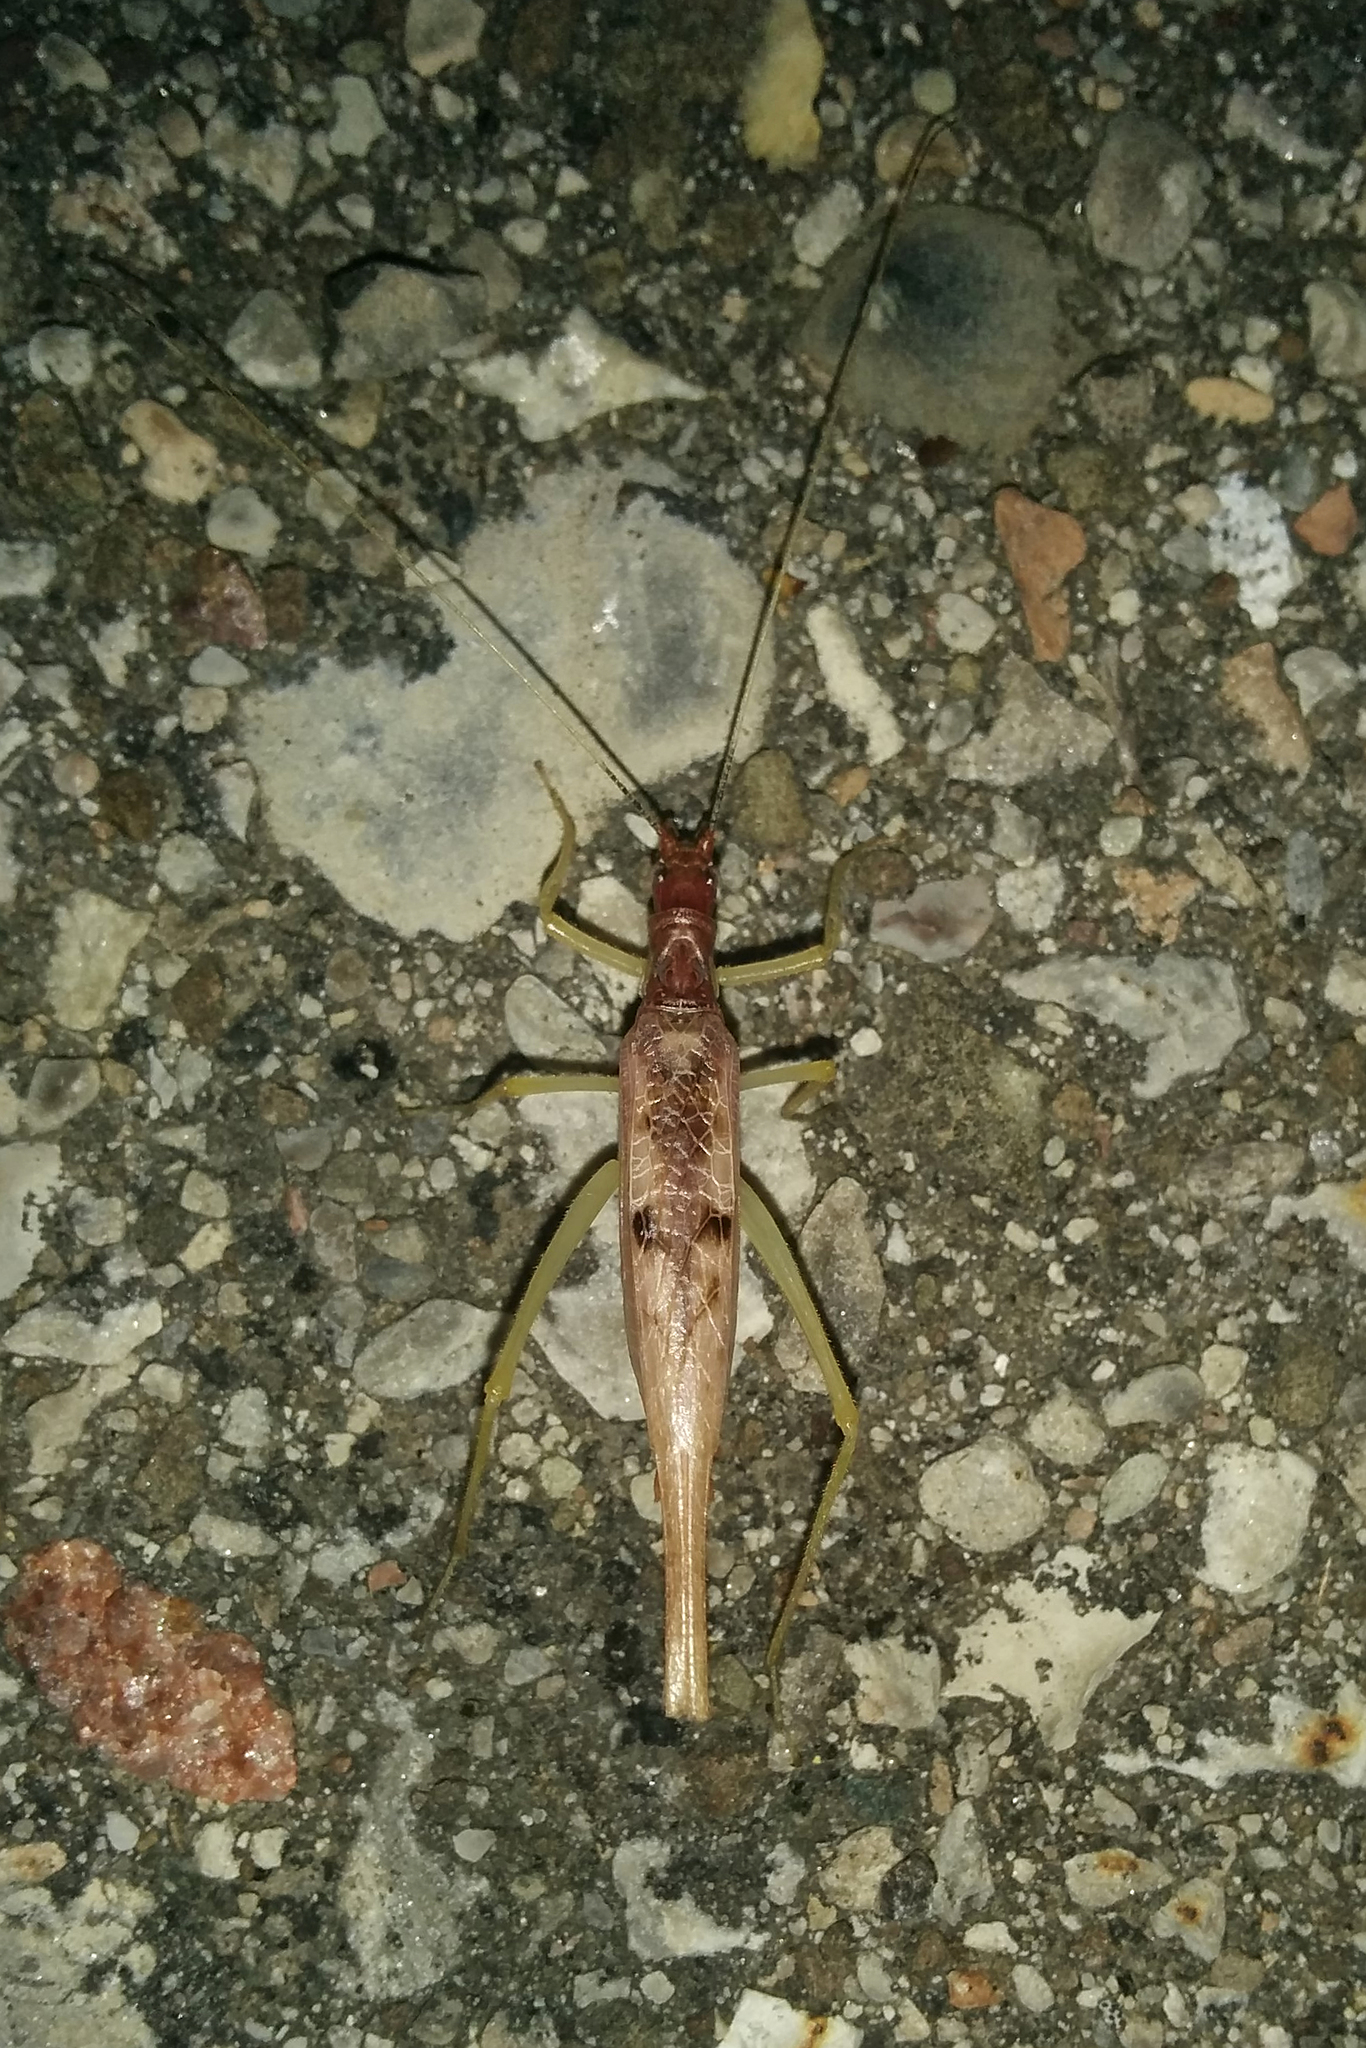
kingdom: Animalia
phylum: Arthropoda
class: Insecta
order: Orthoptera
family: Gryllidae
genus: Neoxabea
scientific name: Neoxabea bipunctata
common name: Two-spotted tree cricket
